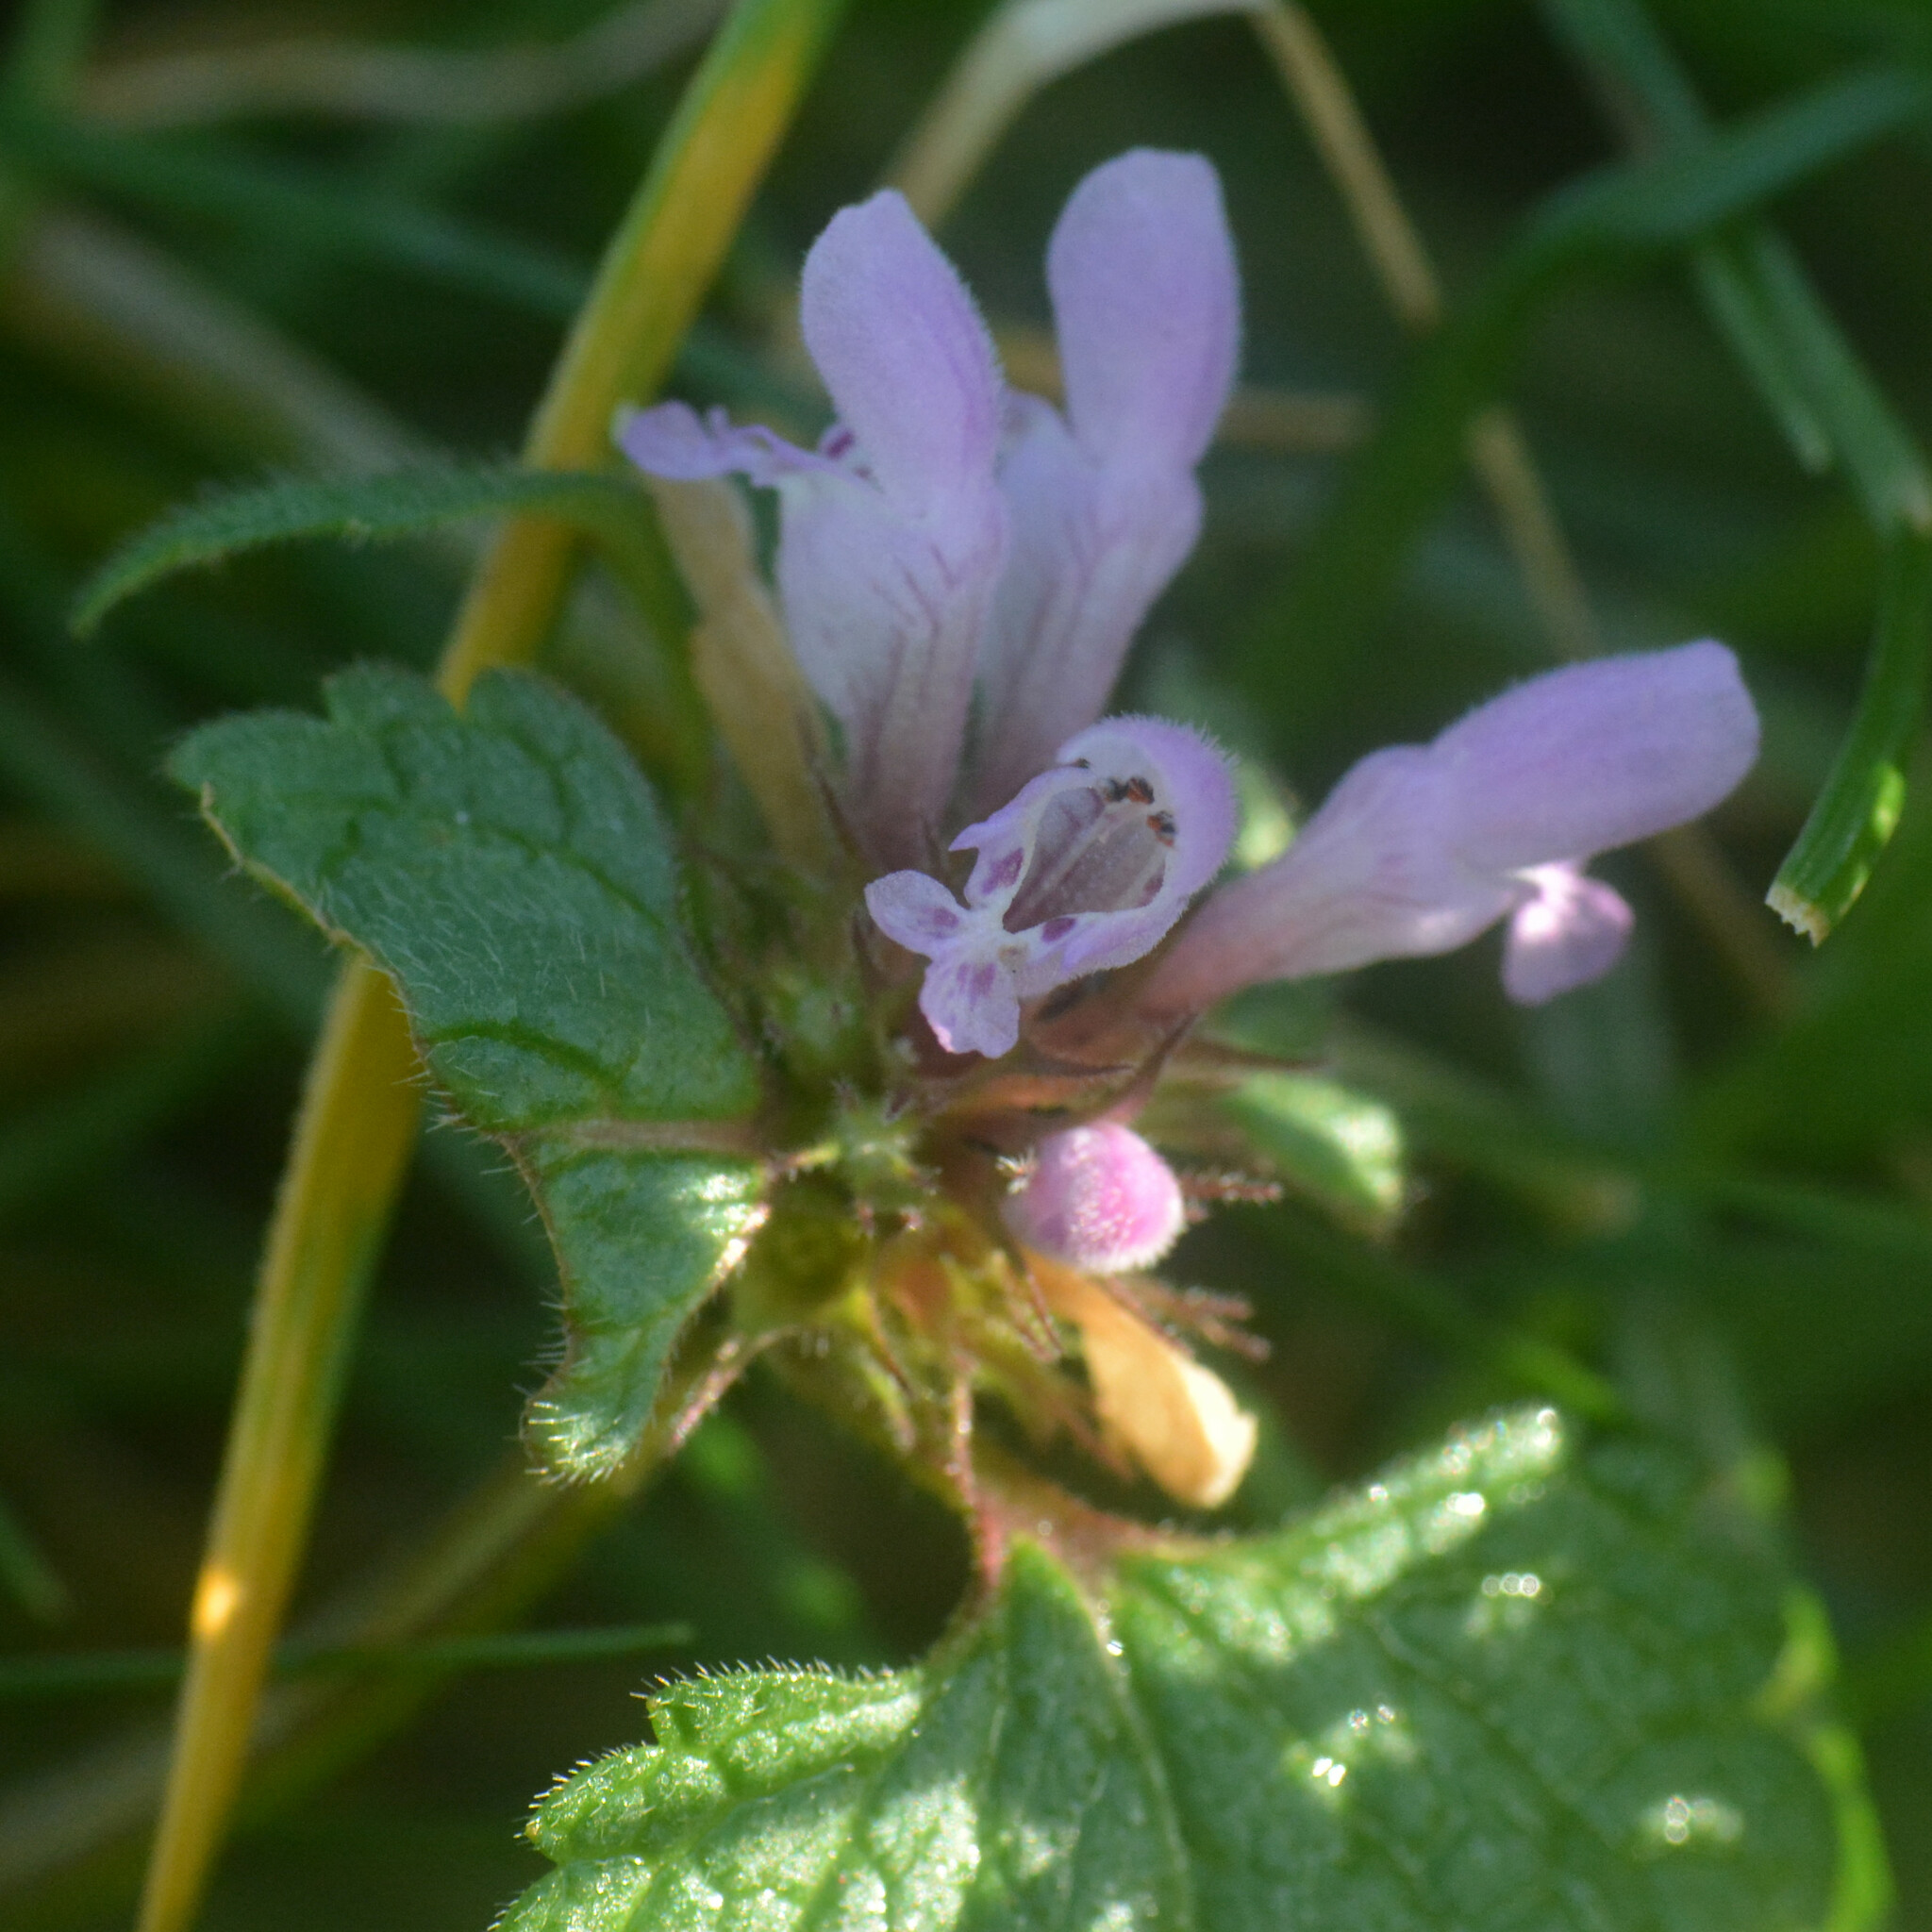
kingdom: Plantae
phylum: Tracheophyta
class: Magnoliopsida
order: Lamiales
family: Lamiaceae
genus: Lamium
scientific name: Lamium purpureum
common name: Red dead-nettle
